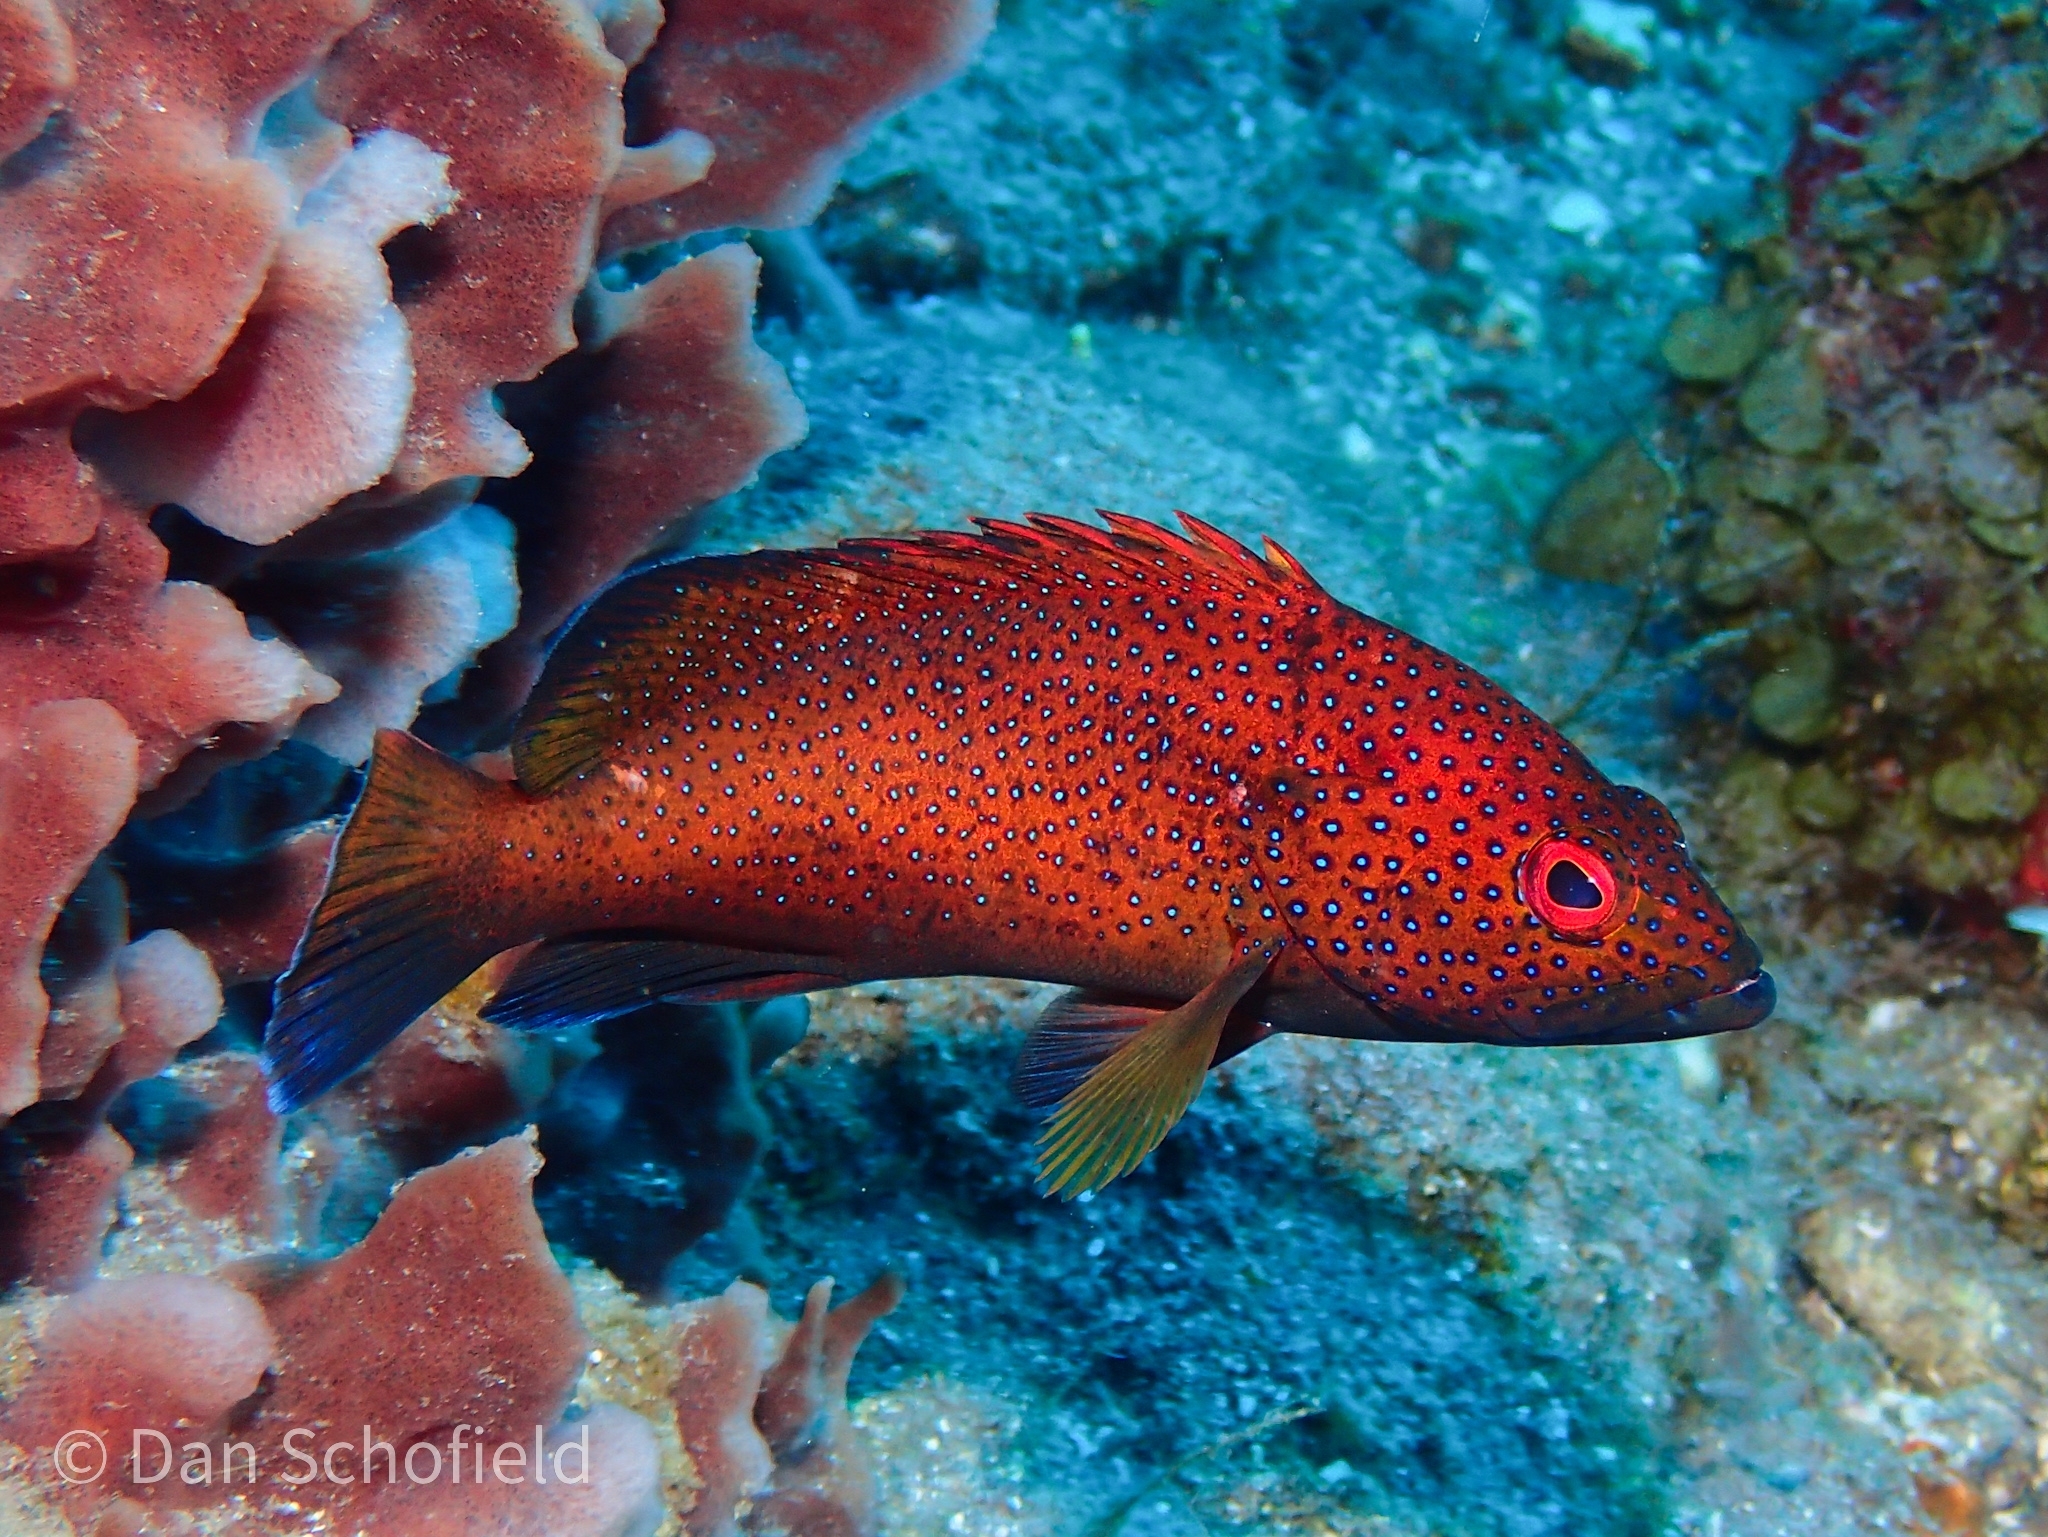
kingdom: Animalia
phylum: Chordata
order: Perciformes
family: Serranidae
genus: Cephalopholis
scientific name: Cephalopholis fulva
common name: Butterfish
